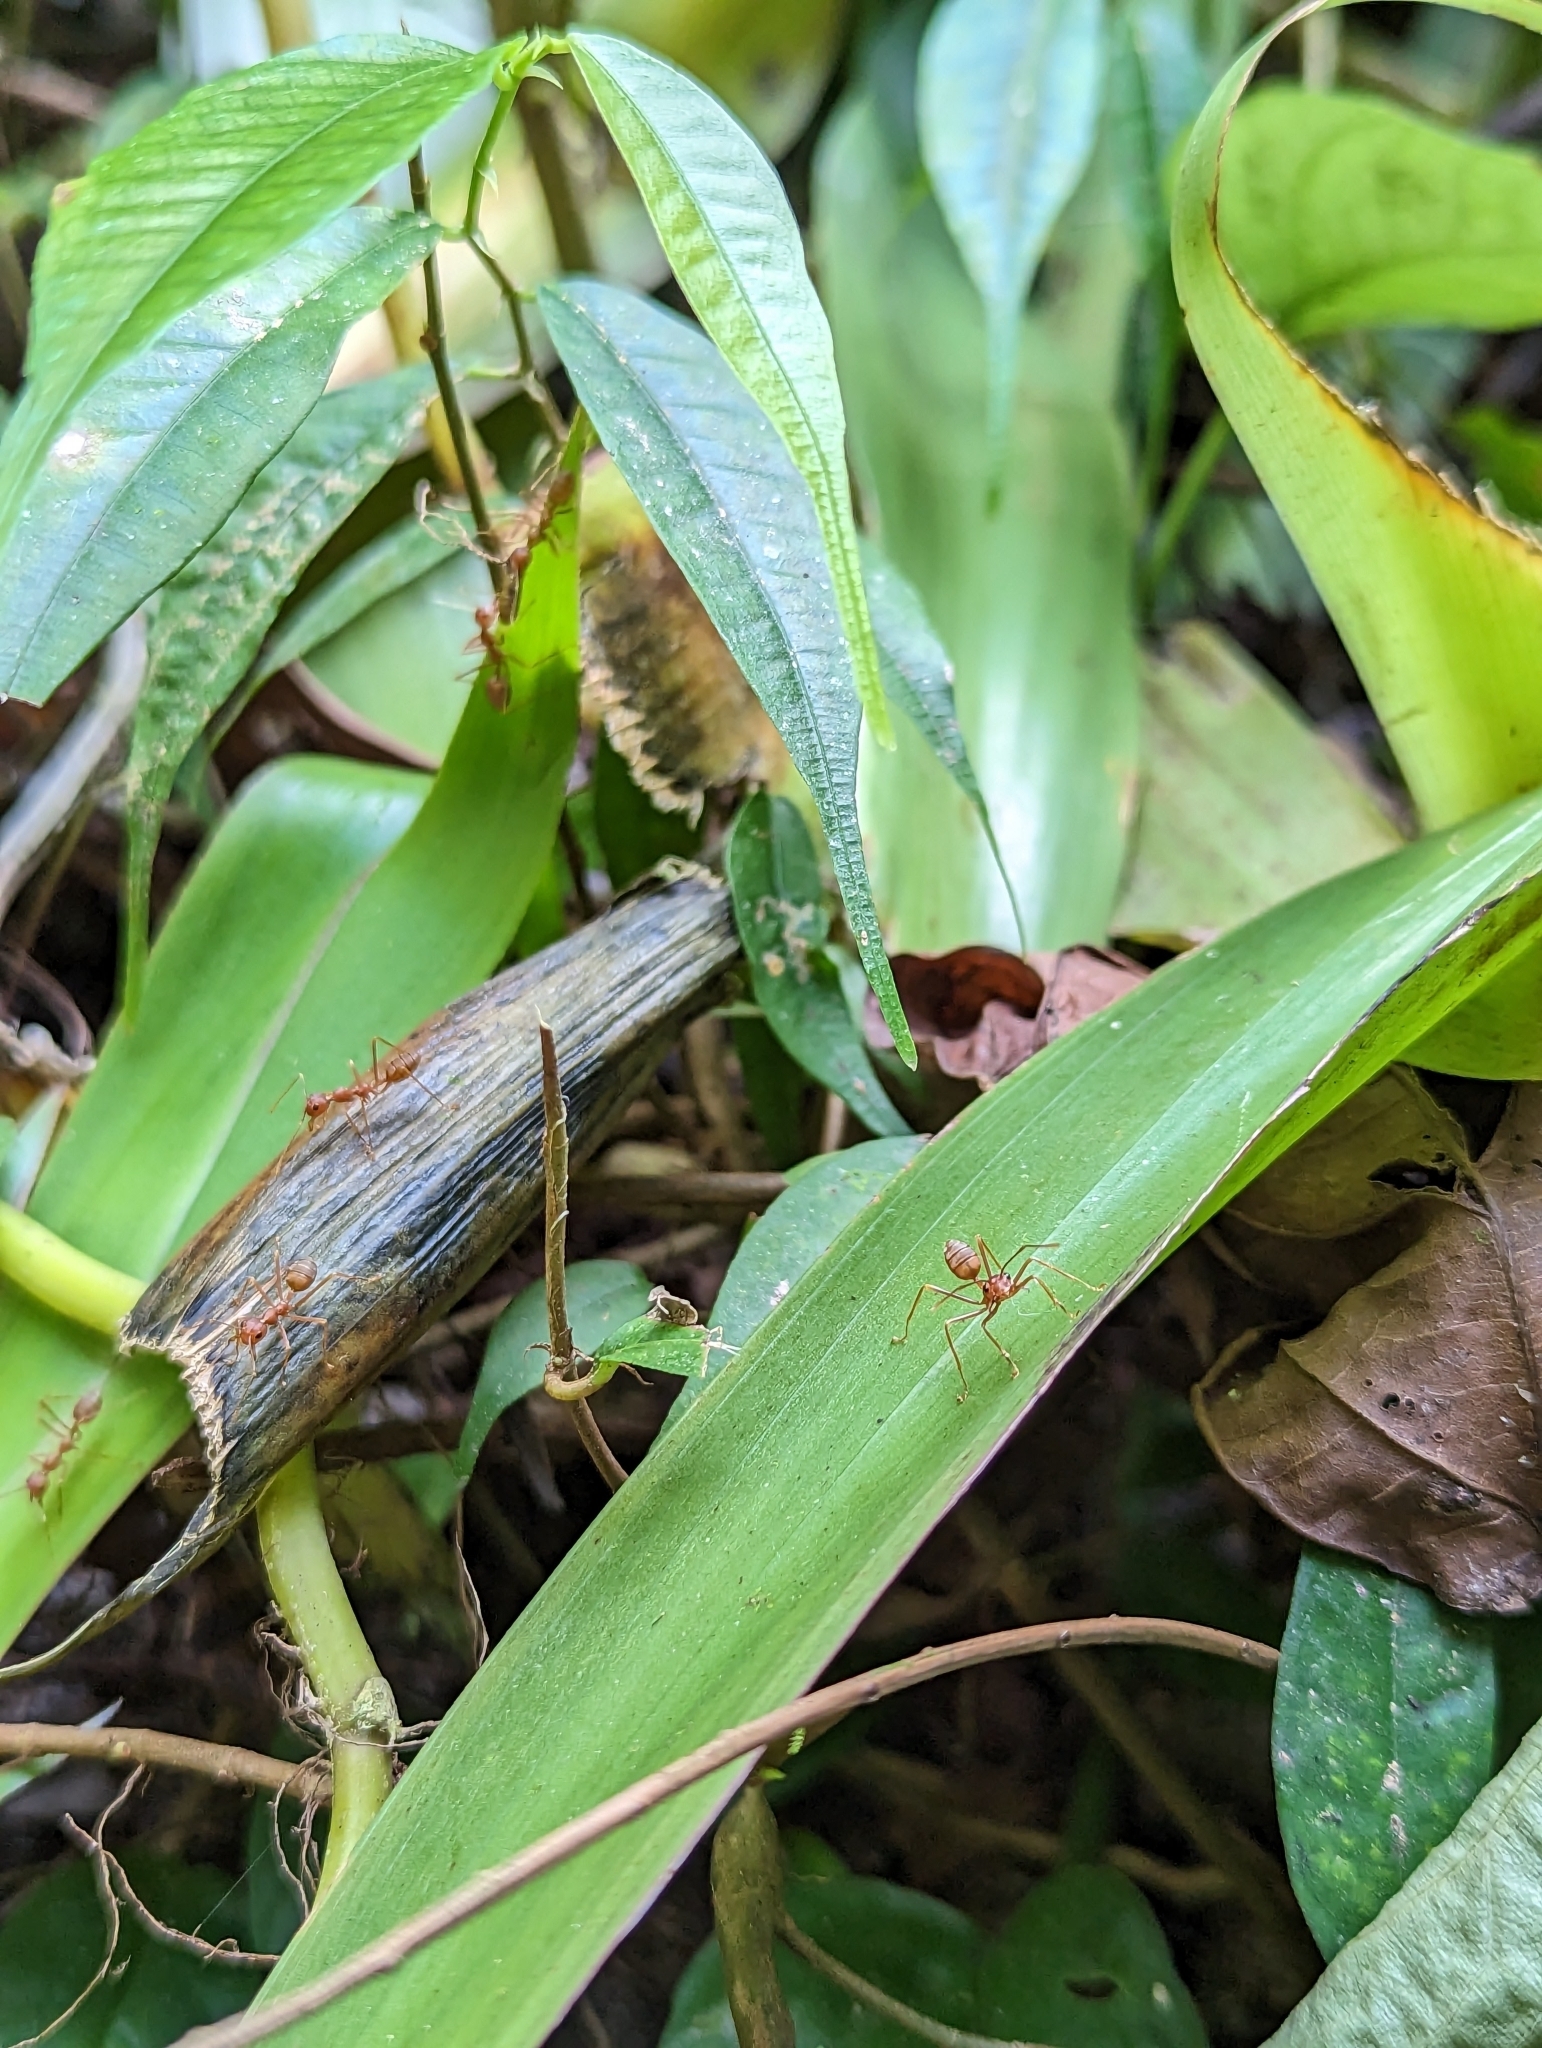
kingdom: Animalia
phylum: Arthropoda
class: Insecta
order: Hymenoptera
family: Formicidae
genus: Oecophylla
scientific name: Oecophylla smaragdina
